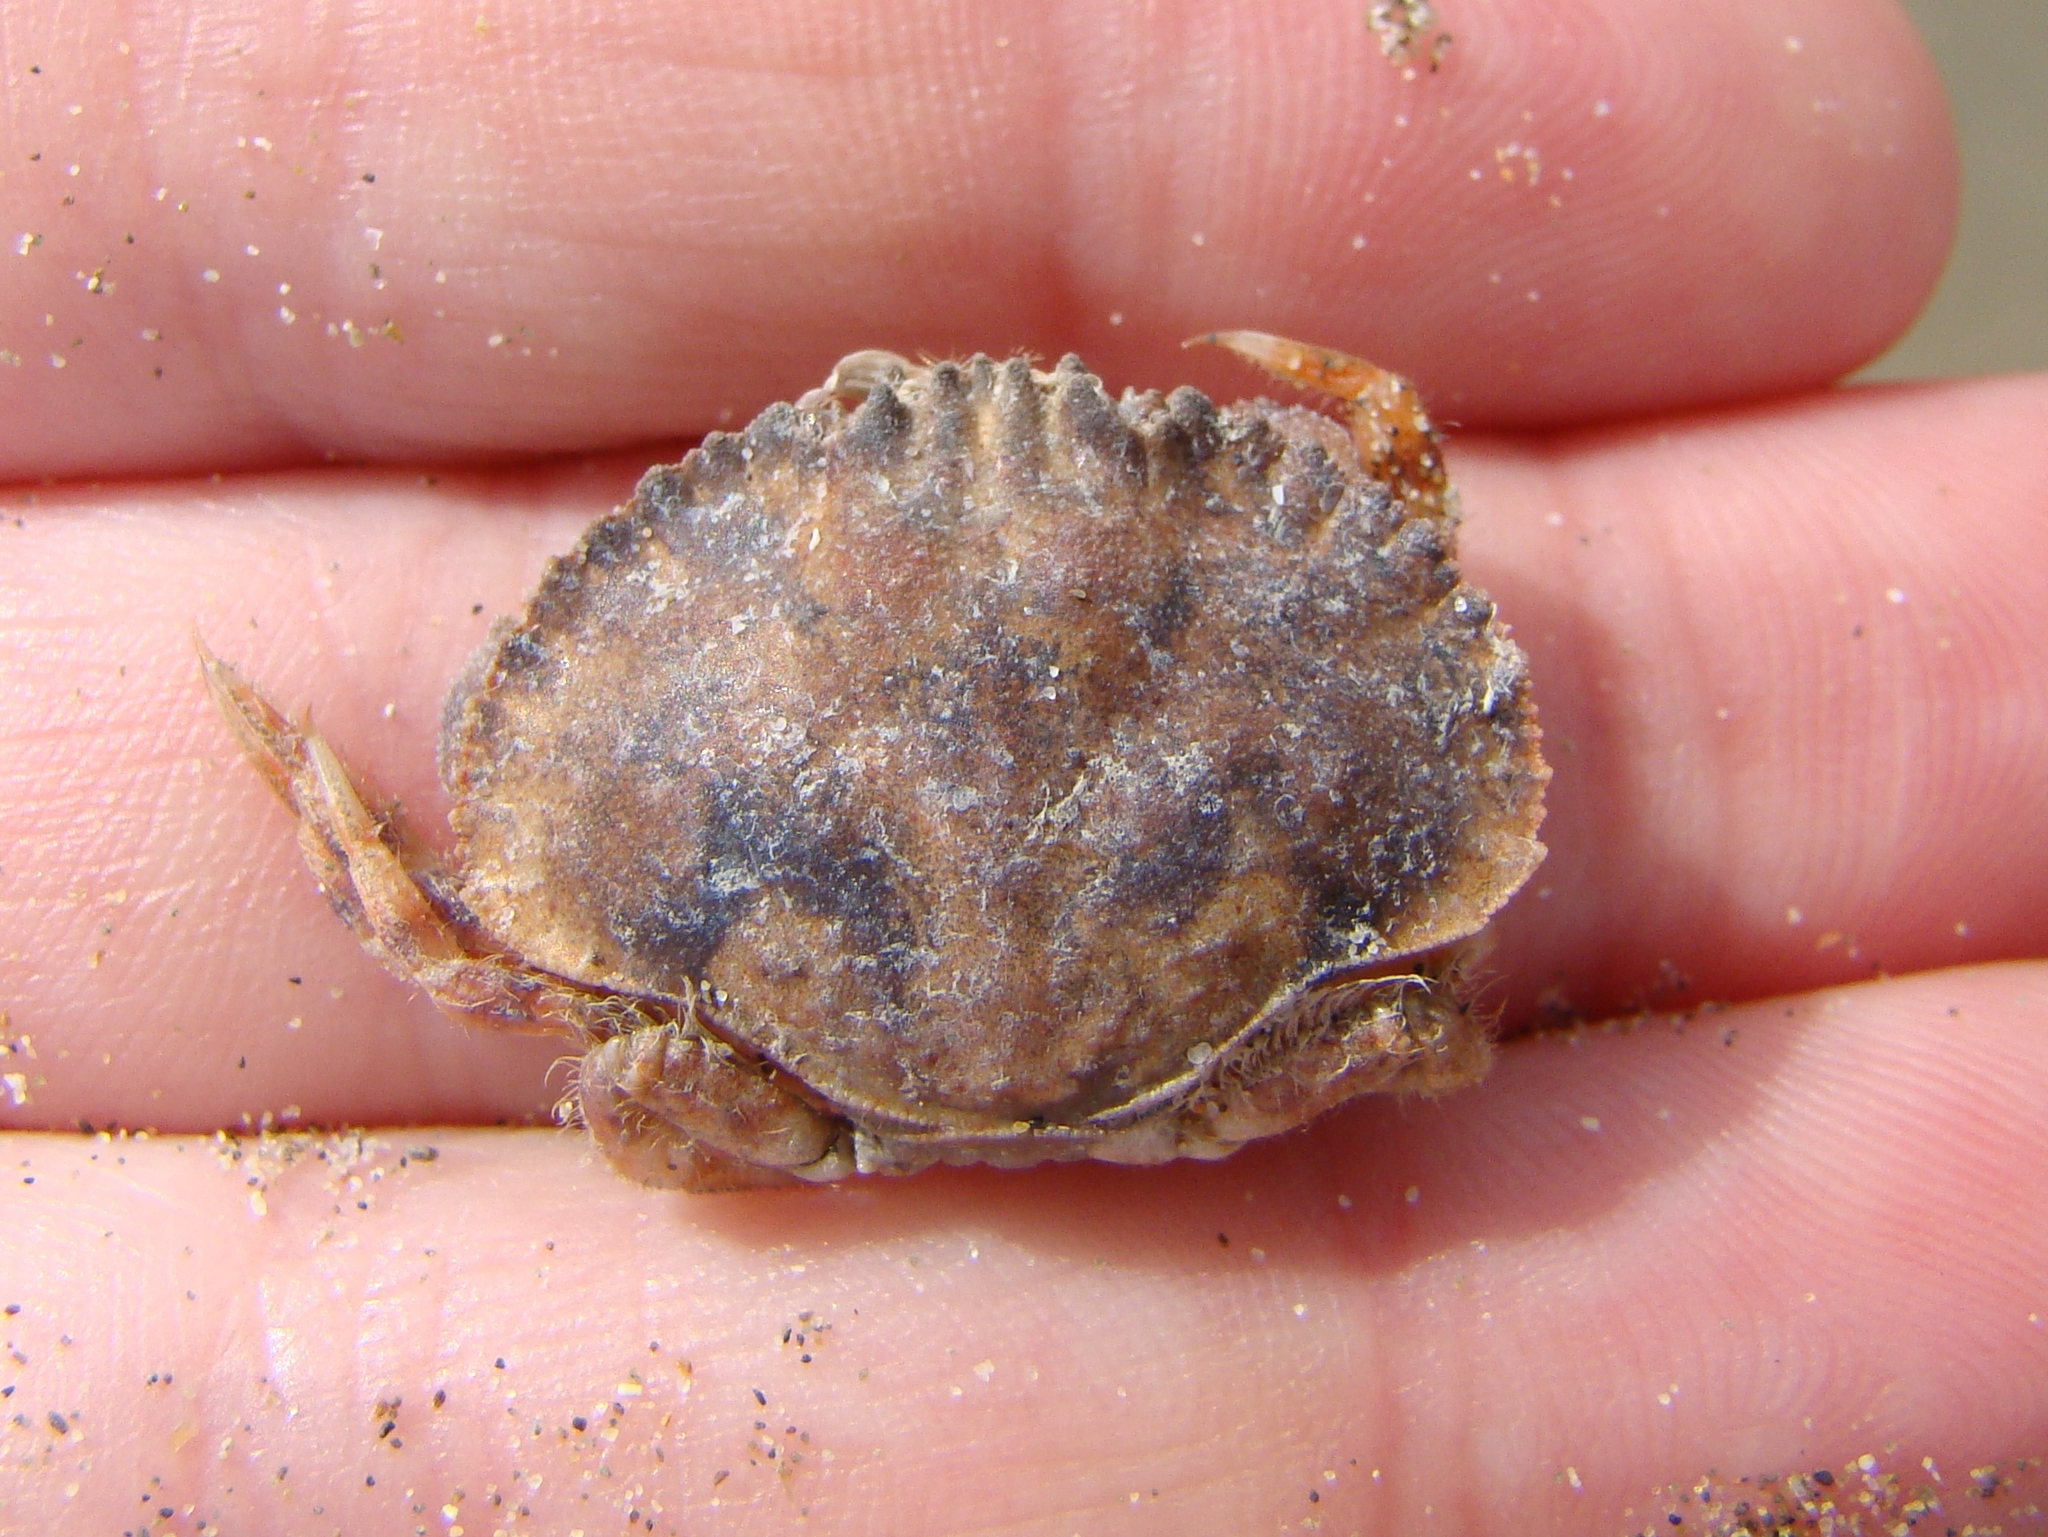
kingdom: Animalia
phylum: Arthropoda
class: Malacostraca
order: Decapoda
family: Cancridae
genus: Metacarcinus
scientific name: Metacarcinus novaezelandiae
